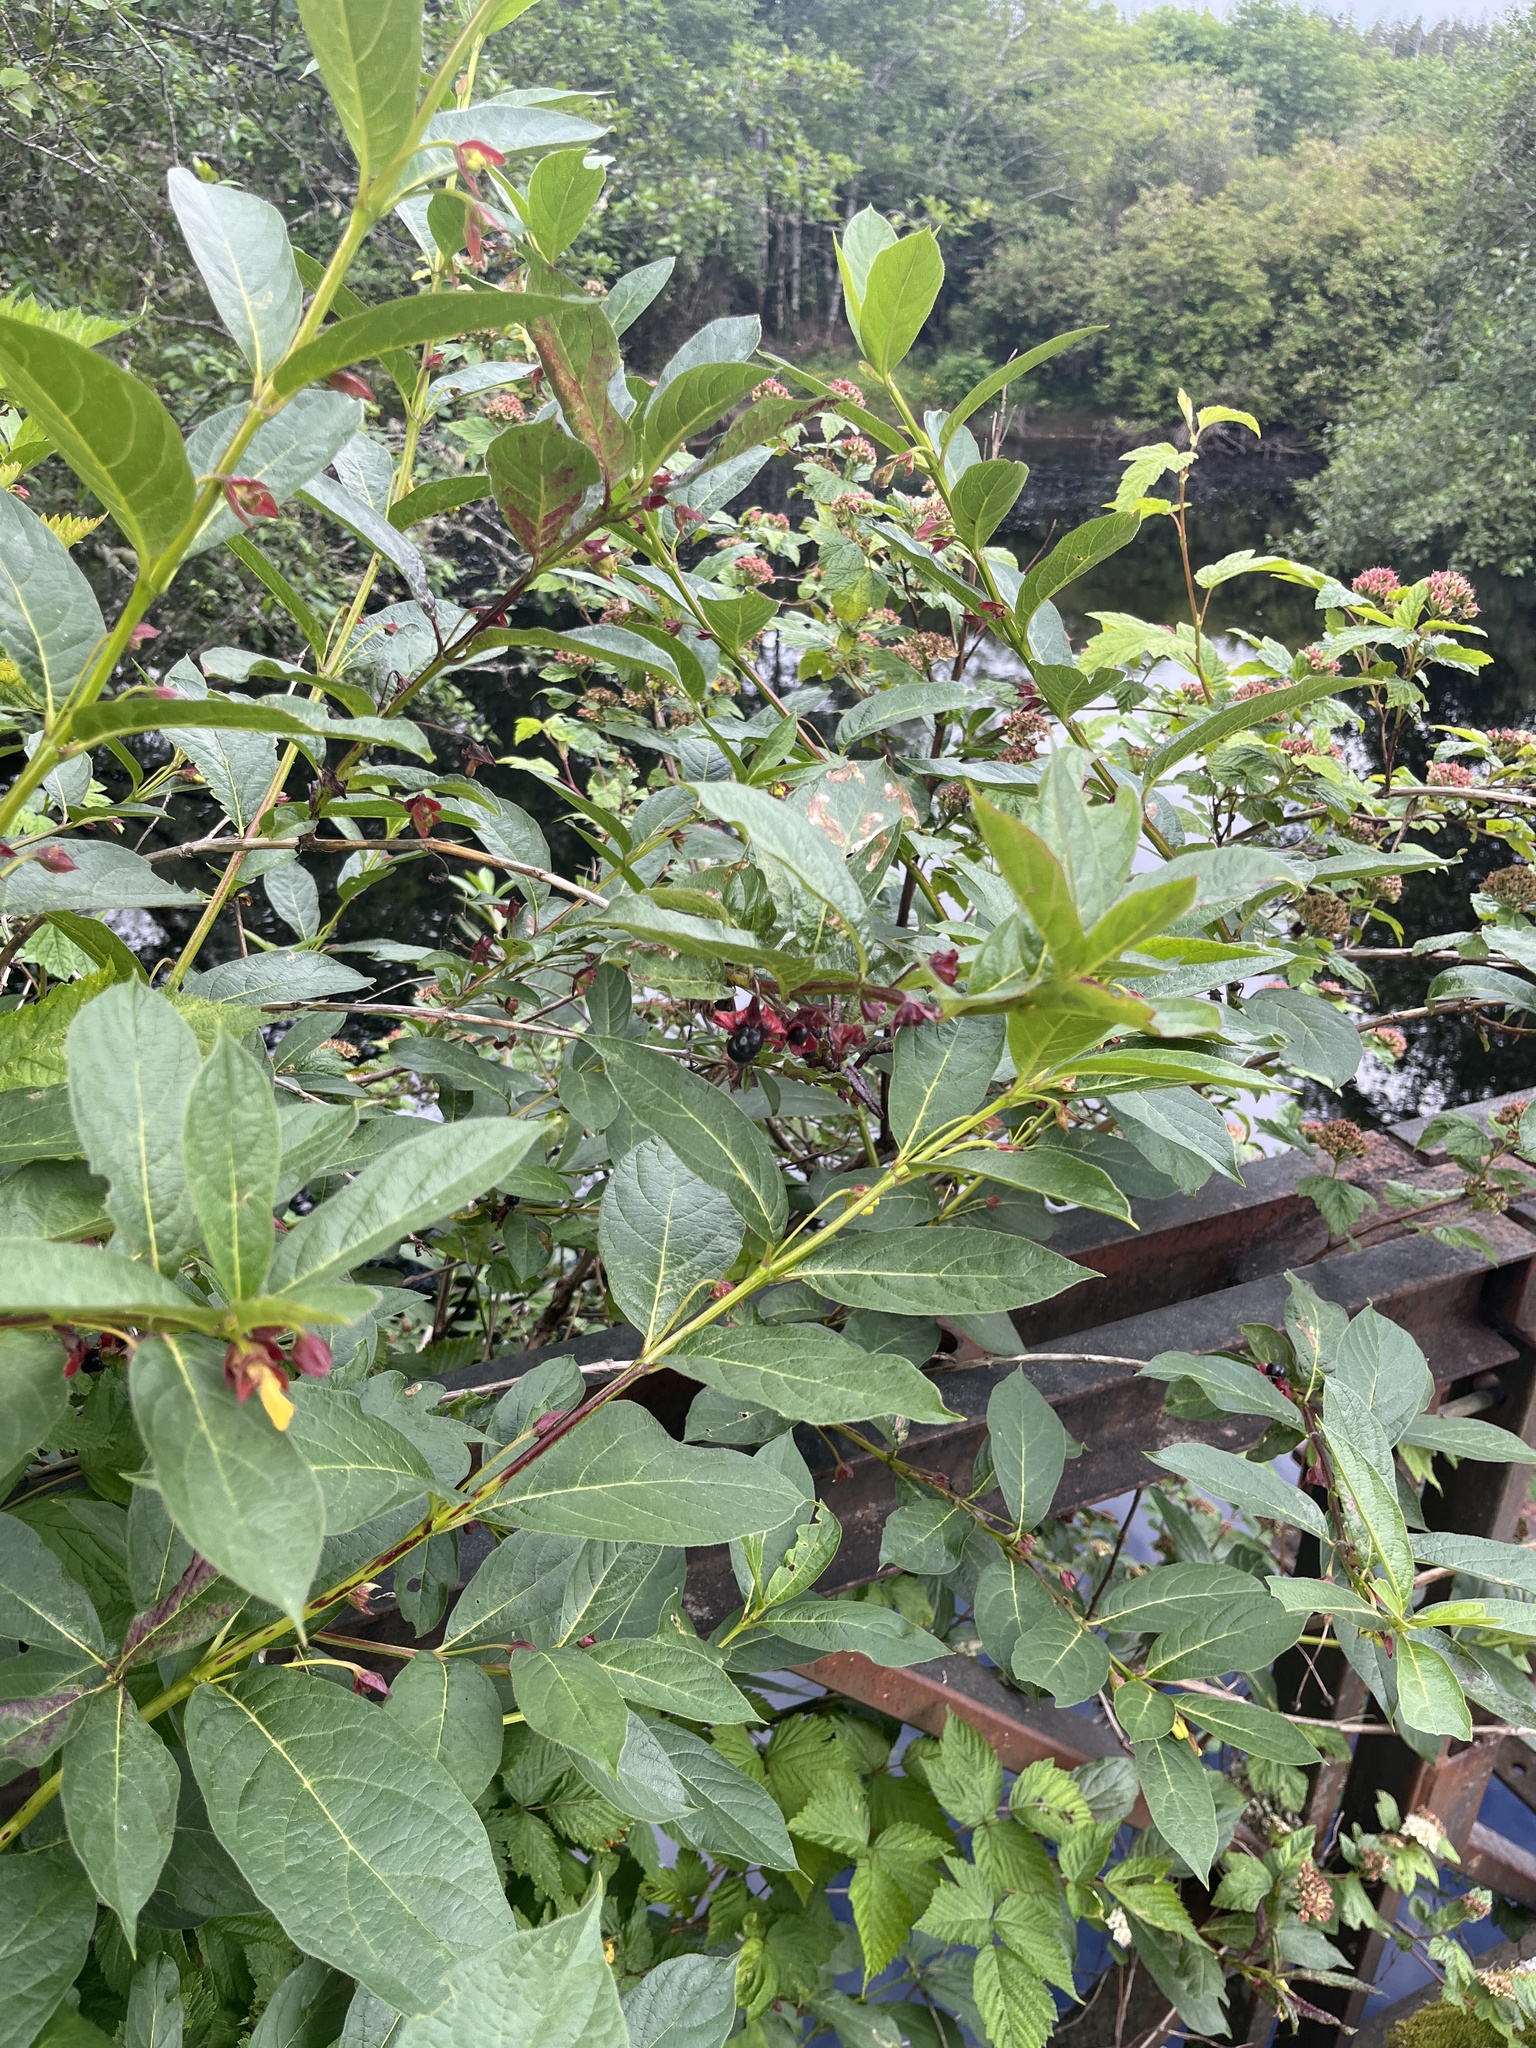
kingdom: Plantae
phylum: Tracheophyta
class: Magnoliopsida
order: Dipsacales
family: Caprifoliaceae
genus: Lonicera
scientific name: Lonicera involucrata
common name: Californian honeysuckle
